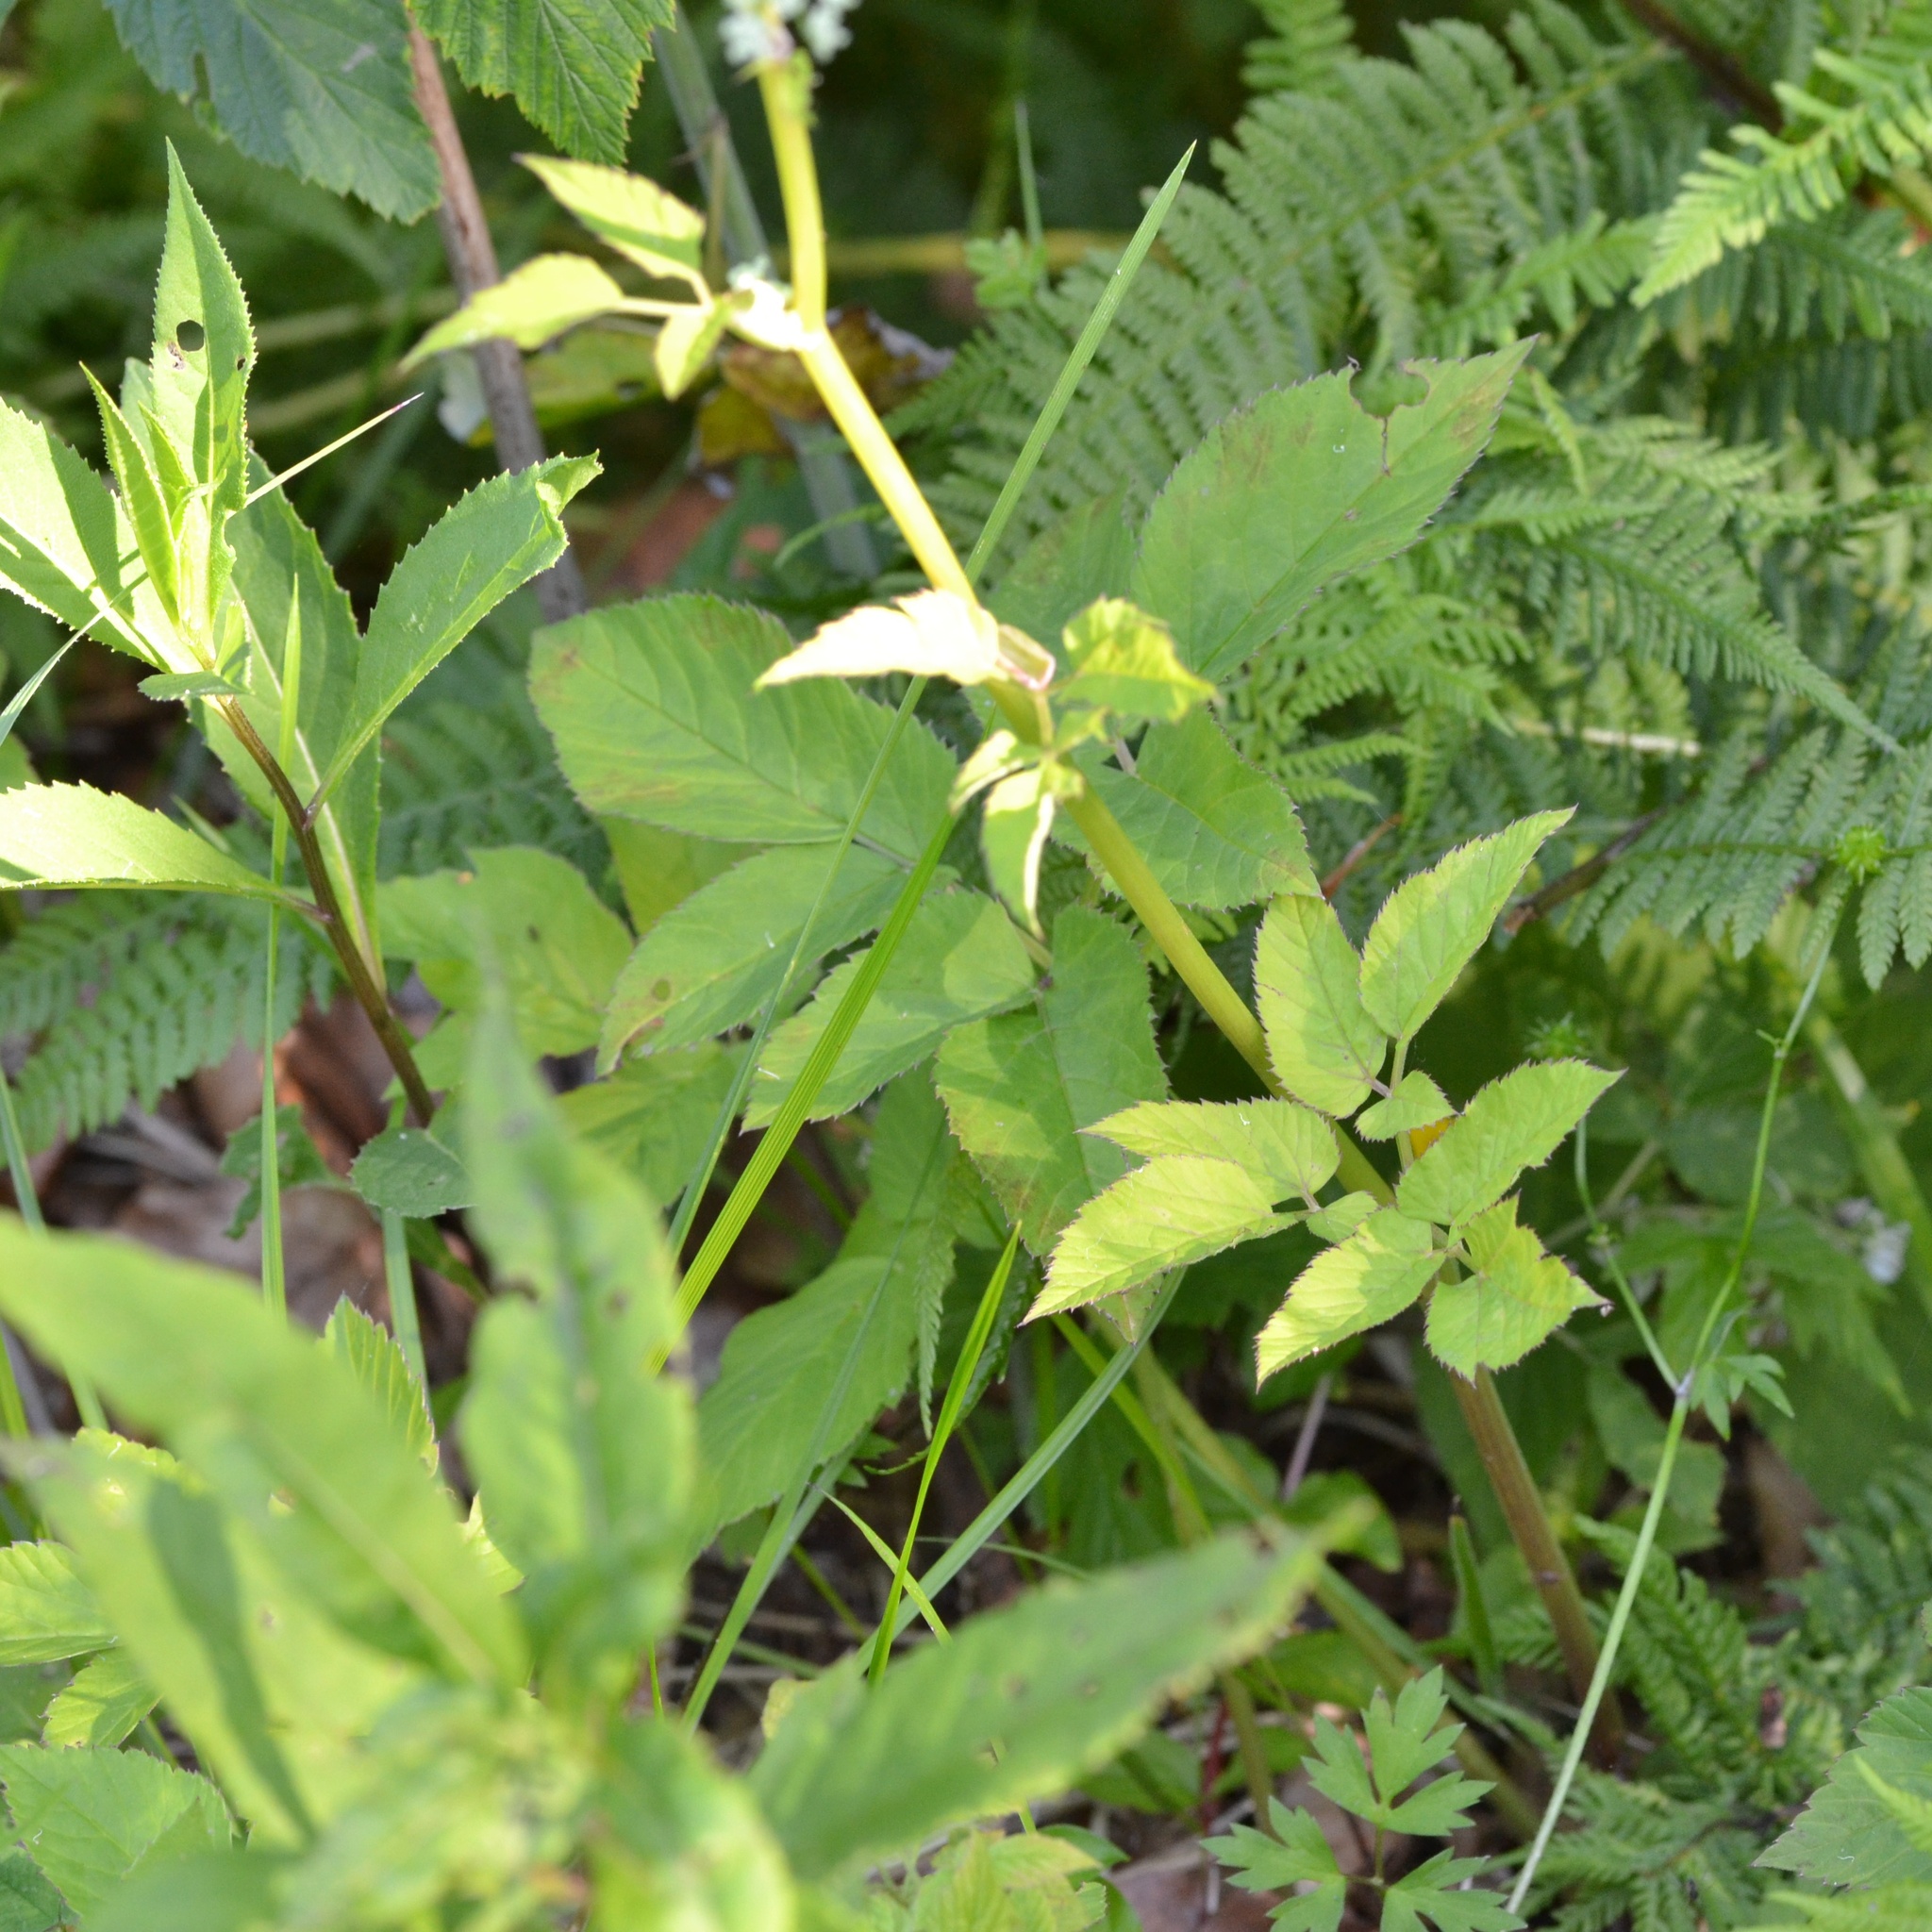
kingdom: Plantae
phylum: Tracheophyta
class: Magnoliopsida
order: Apiales
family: Apiaceae
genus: Aegopodium
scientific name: Aegopodium podagraria
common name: Ground-elder
